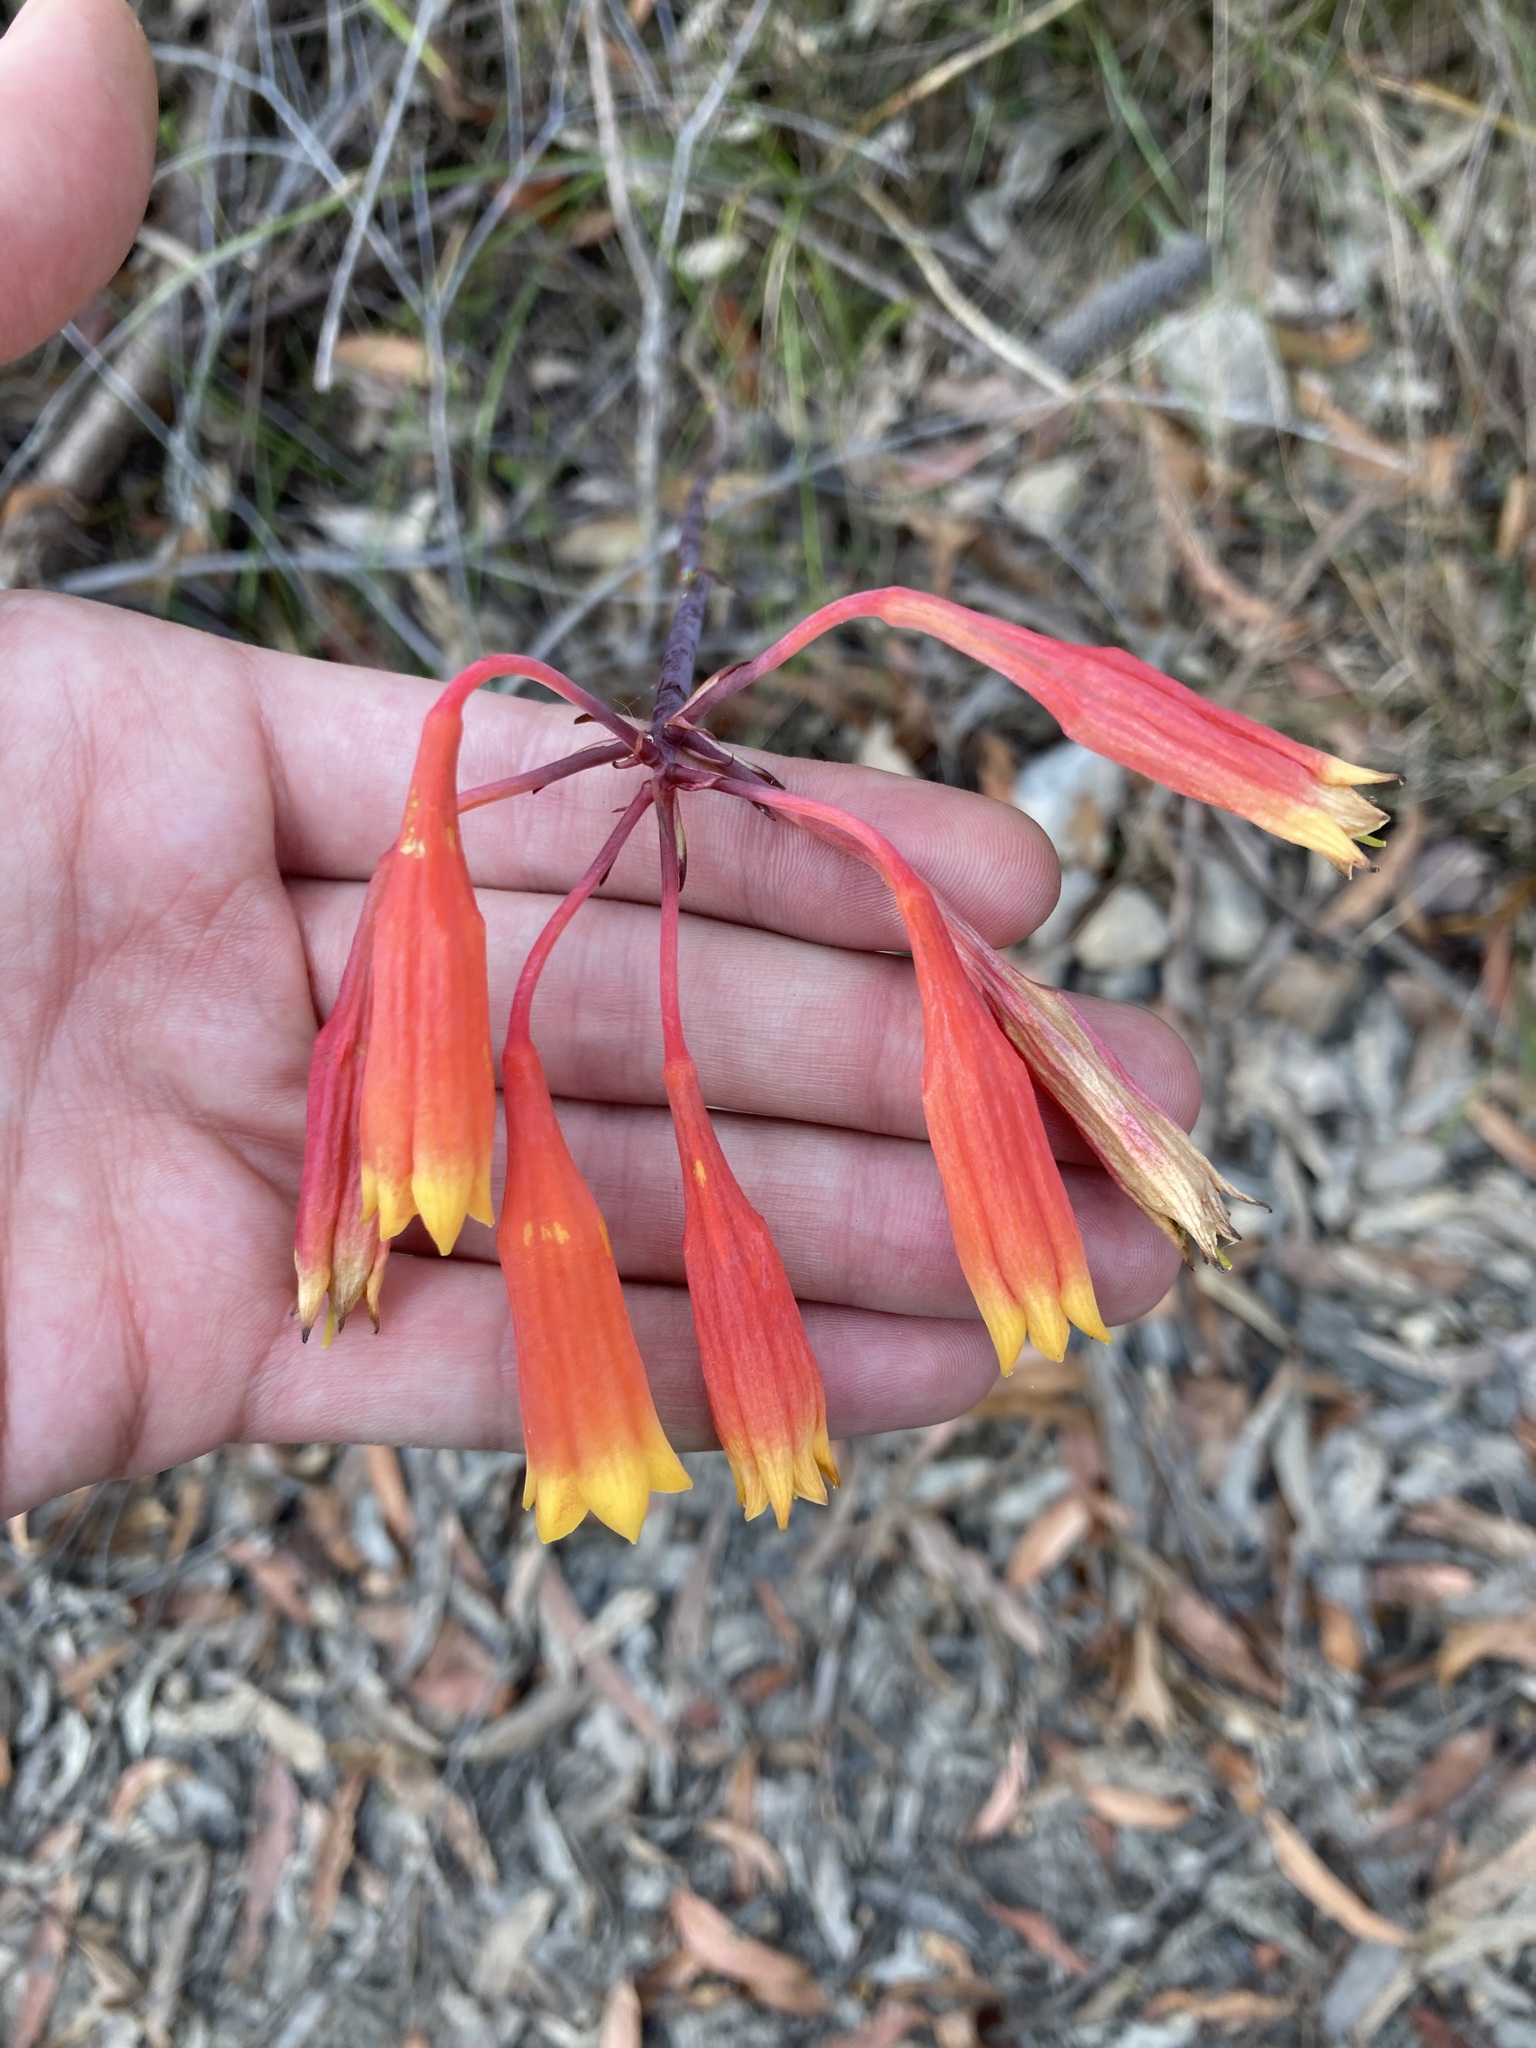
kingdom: Plantae
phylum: Tracheophyta
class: Liliopsida
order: Asparagales
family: Blandfordiaceae
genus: Blandfordia
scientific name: Blandfordia nobilis
